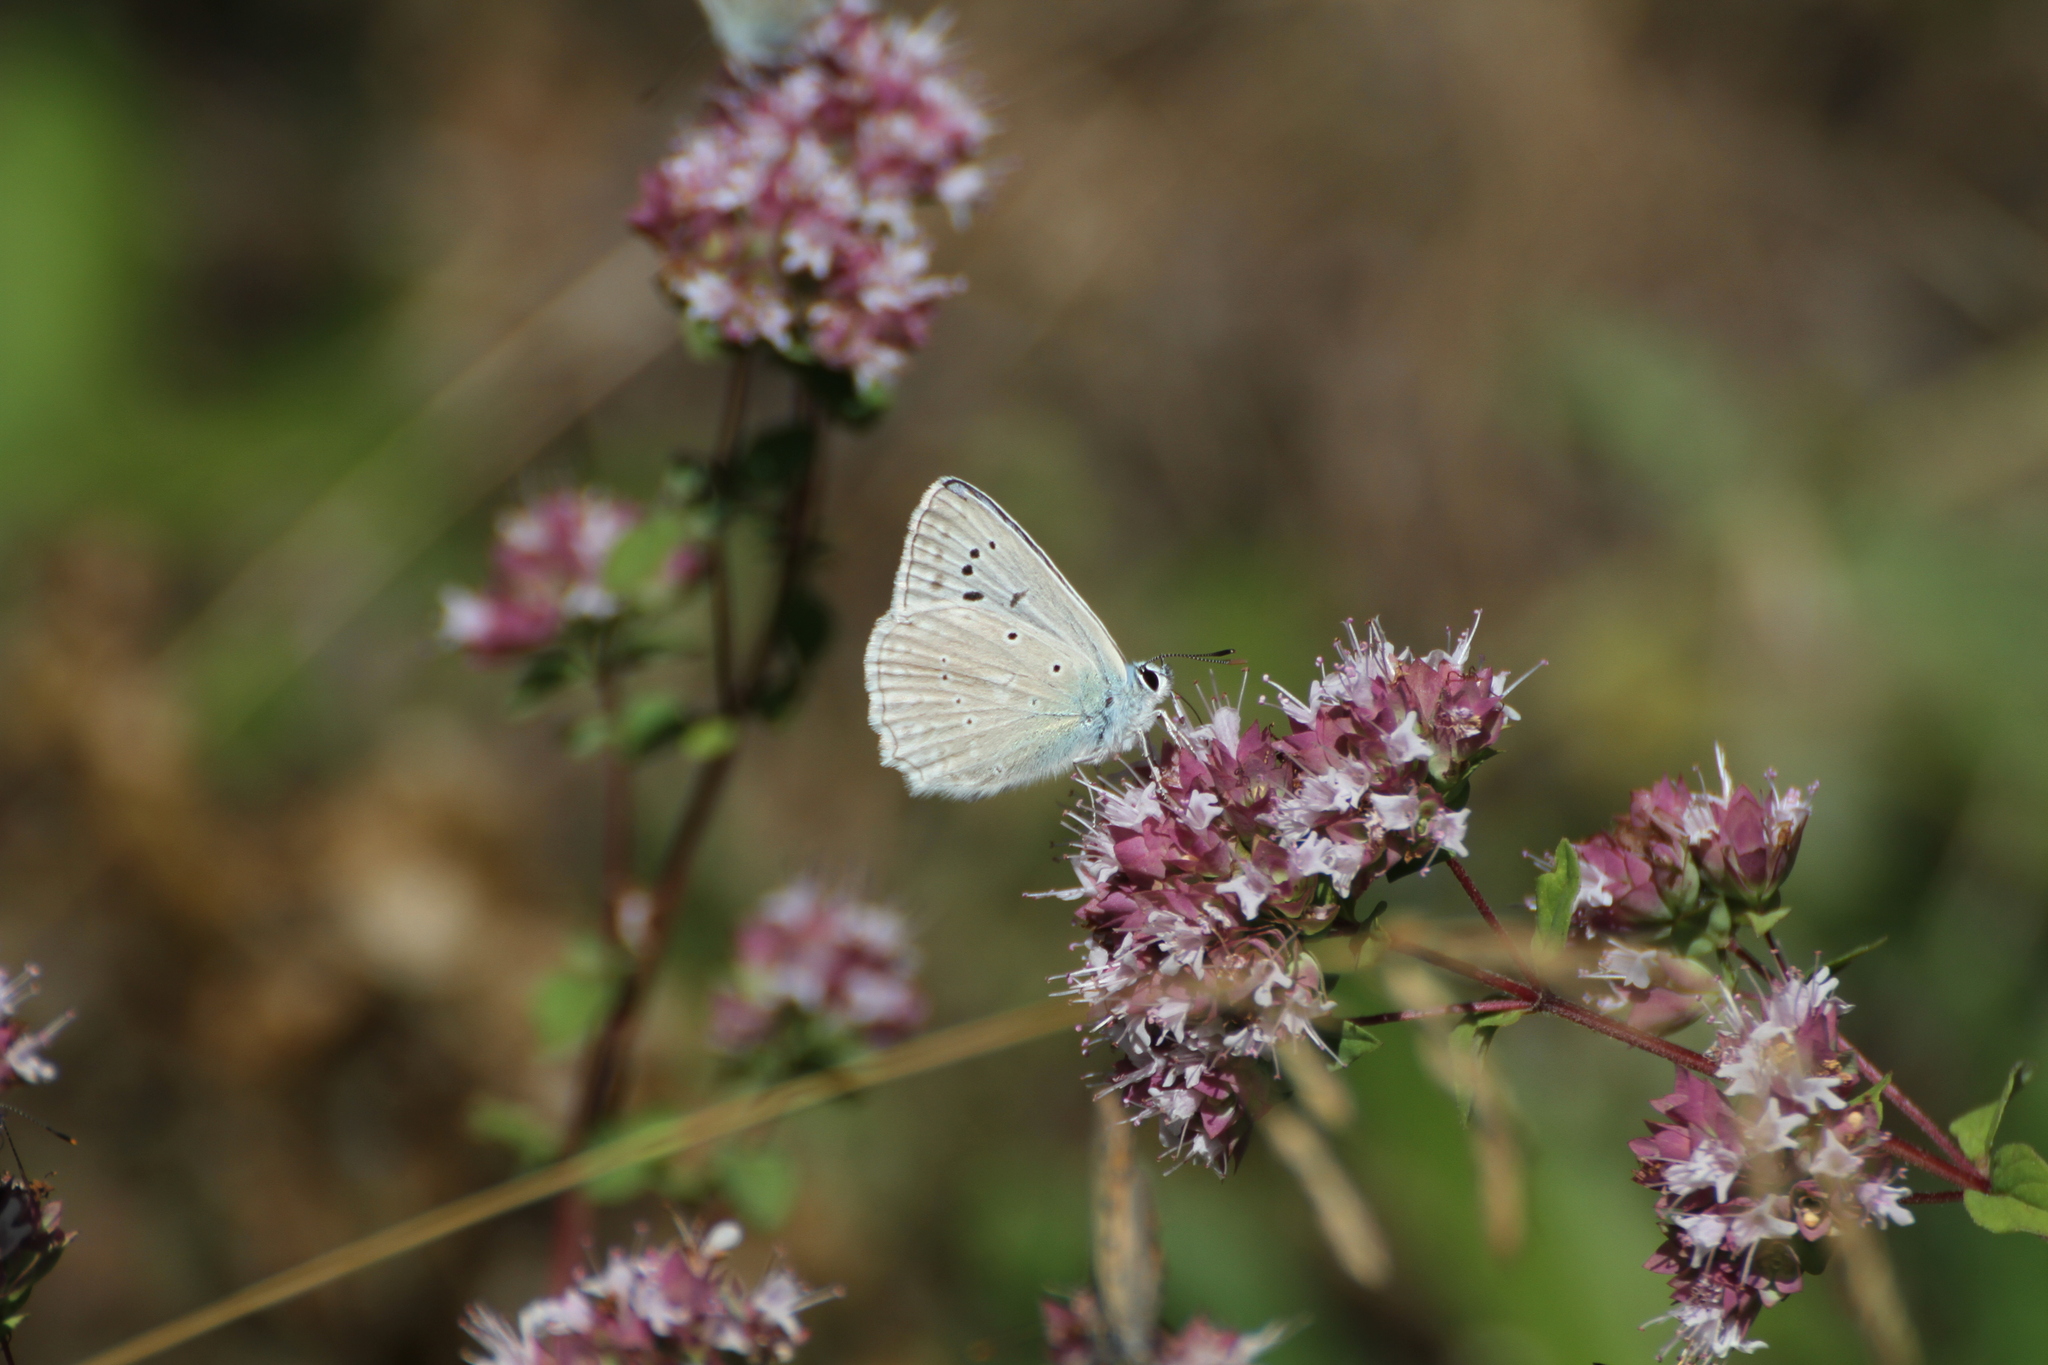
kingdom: Animalia
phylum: Arthropoda
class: Insecta
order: Lepidoptera
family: Lycaenidae
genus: Polyommatus
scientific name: Polyommatus daphnis
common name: Meleager's blue
